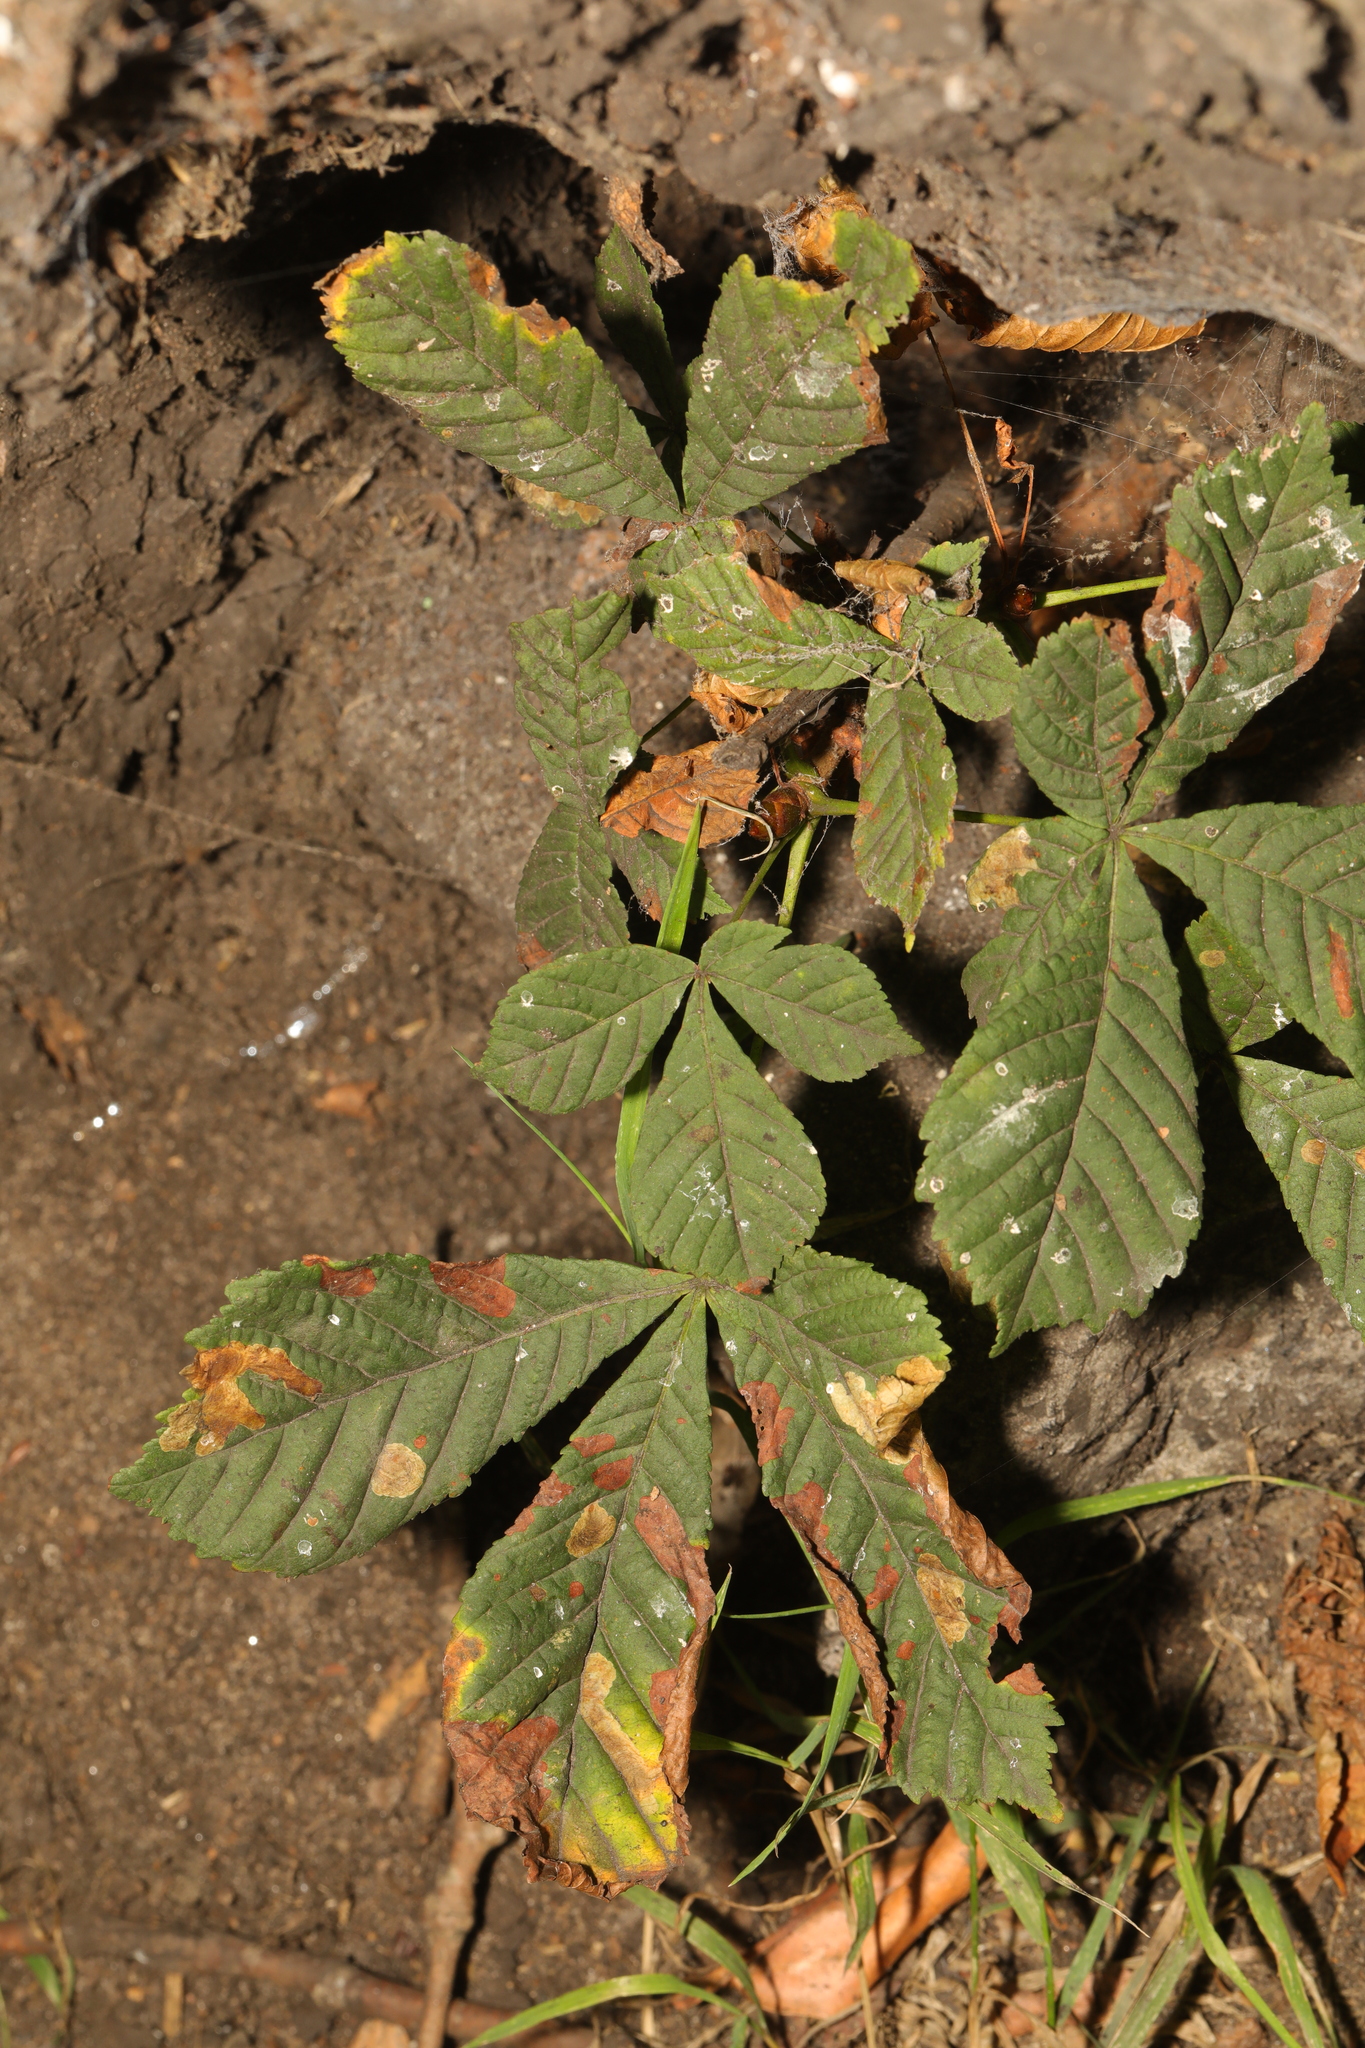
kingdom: Plantae
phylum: Tracheophyta
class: Magnoliopsida
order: Sapindales
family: Sapindaceae
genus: Aesculus
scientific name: Aesculus hippocastanum
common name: Horse-chestnut
